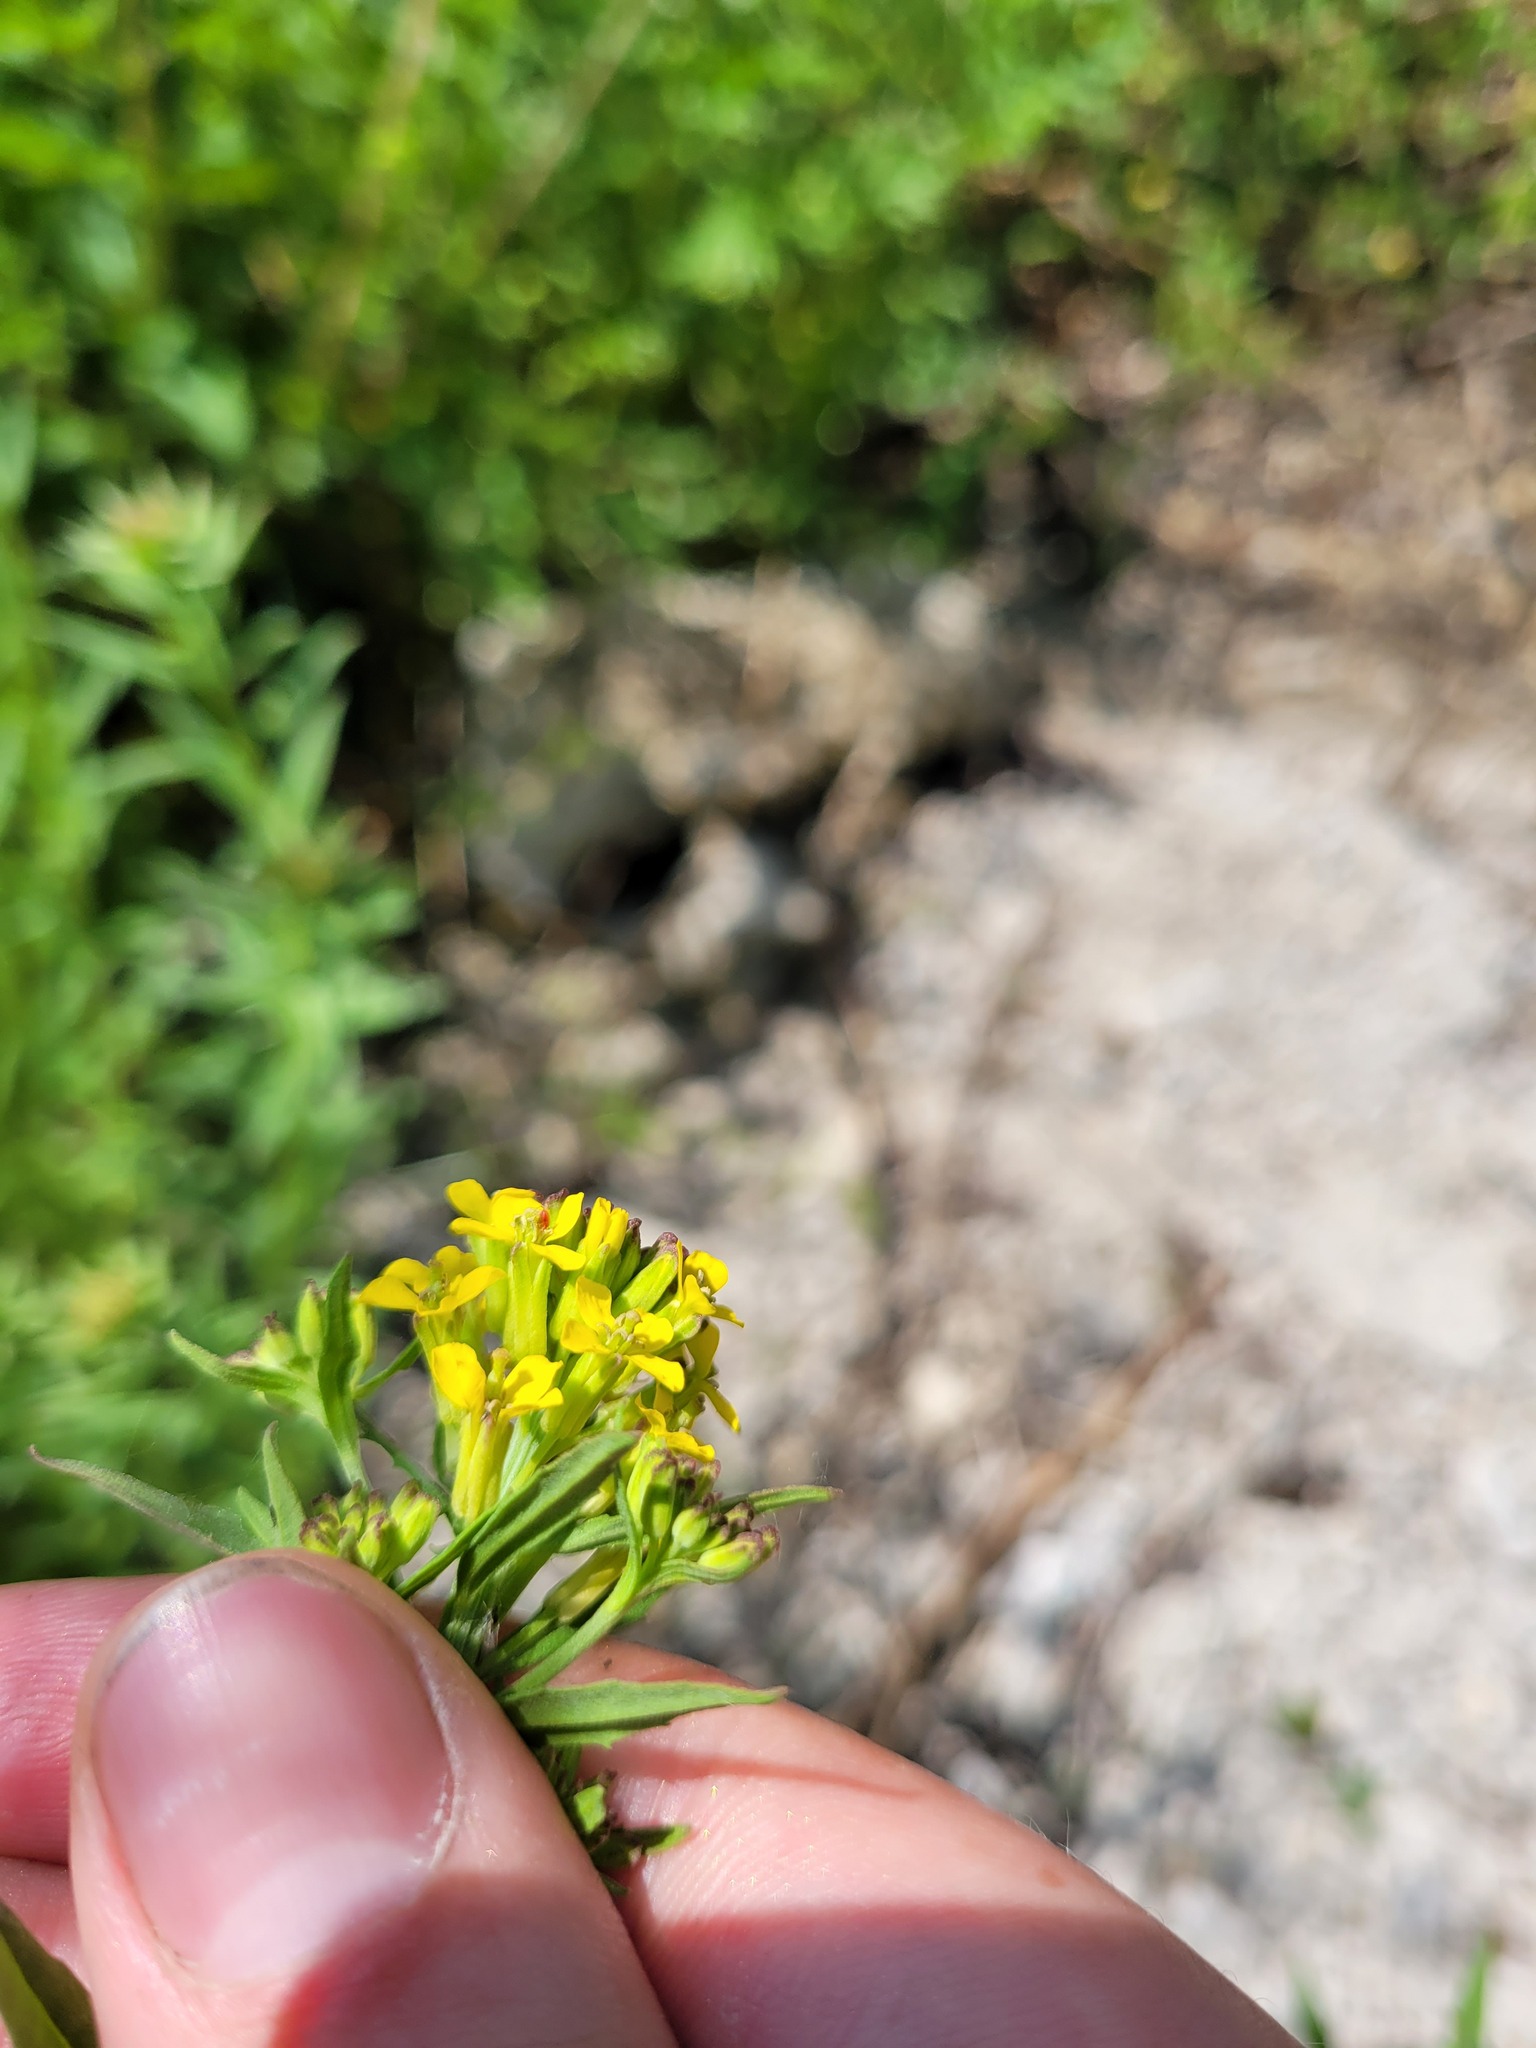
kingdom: Plantae
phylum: Tracheophyta
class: Magnoliopsida
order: Brassicales
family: Brassicaceae
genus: Erysimum
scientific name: Erysimum hieraciifolium
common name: European wallflower
